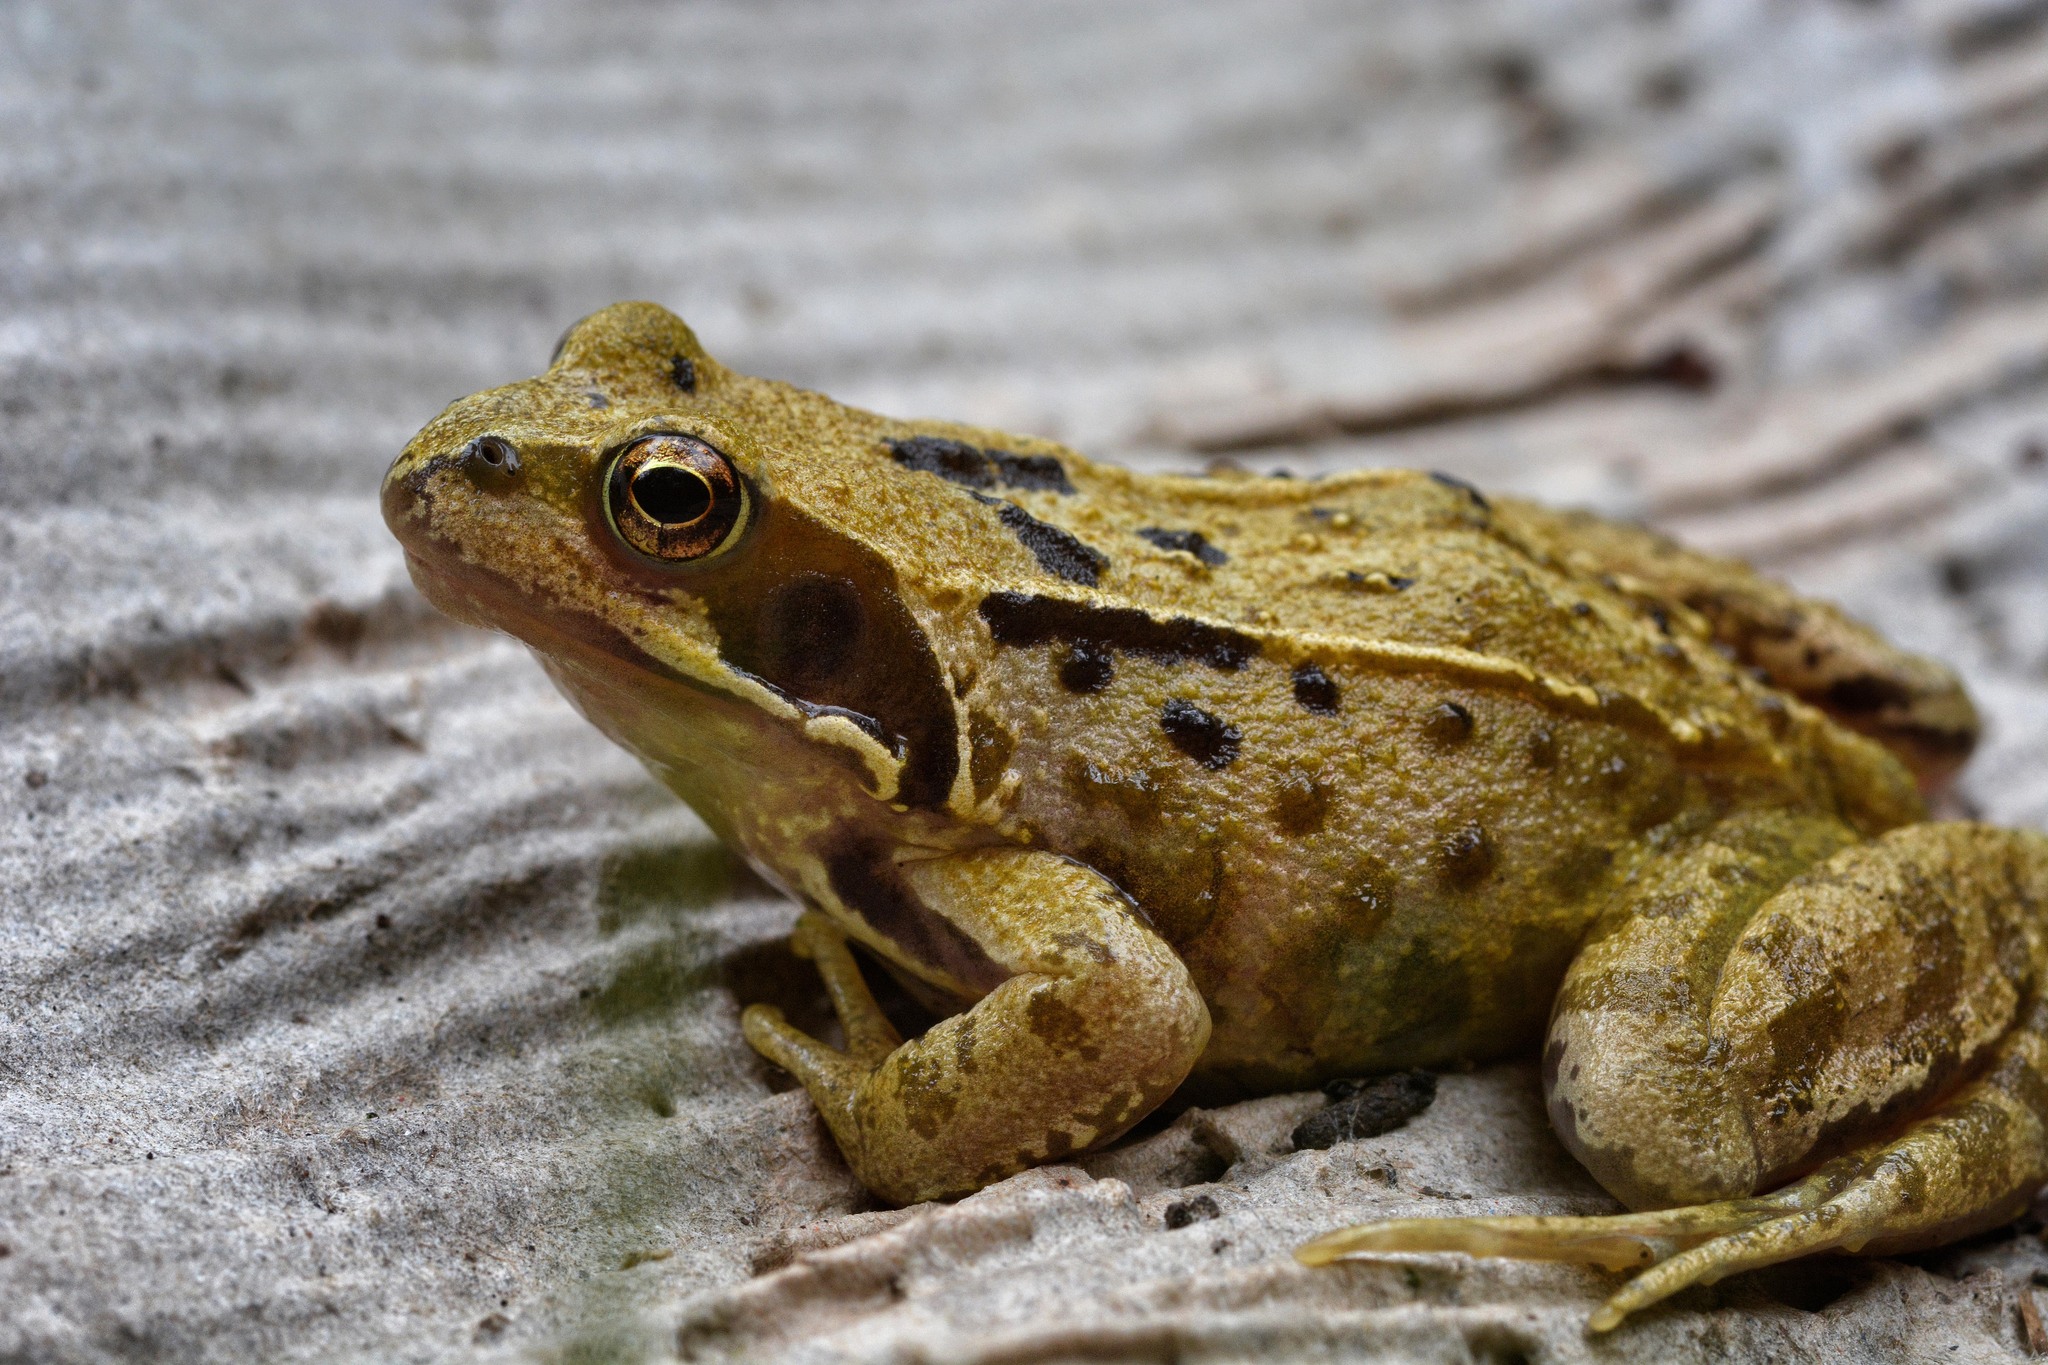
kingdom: Animalia
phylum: Chordata
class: Amphibia
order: Anura
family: Ranidae
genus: Rana
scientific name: Rana temporaria
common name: Common frog
